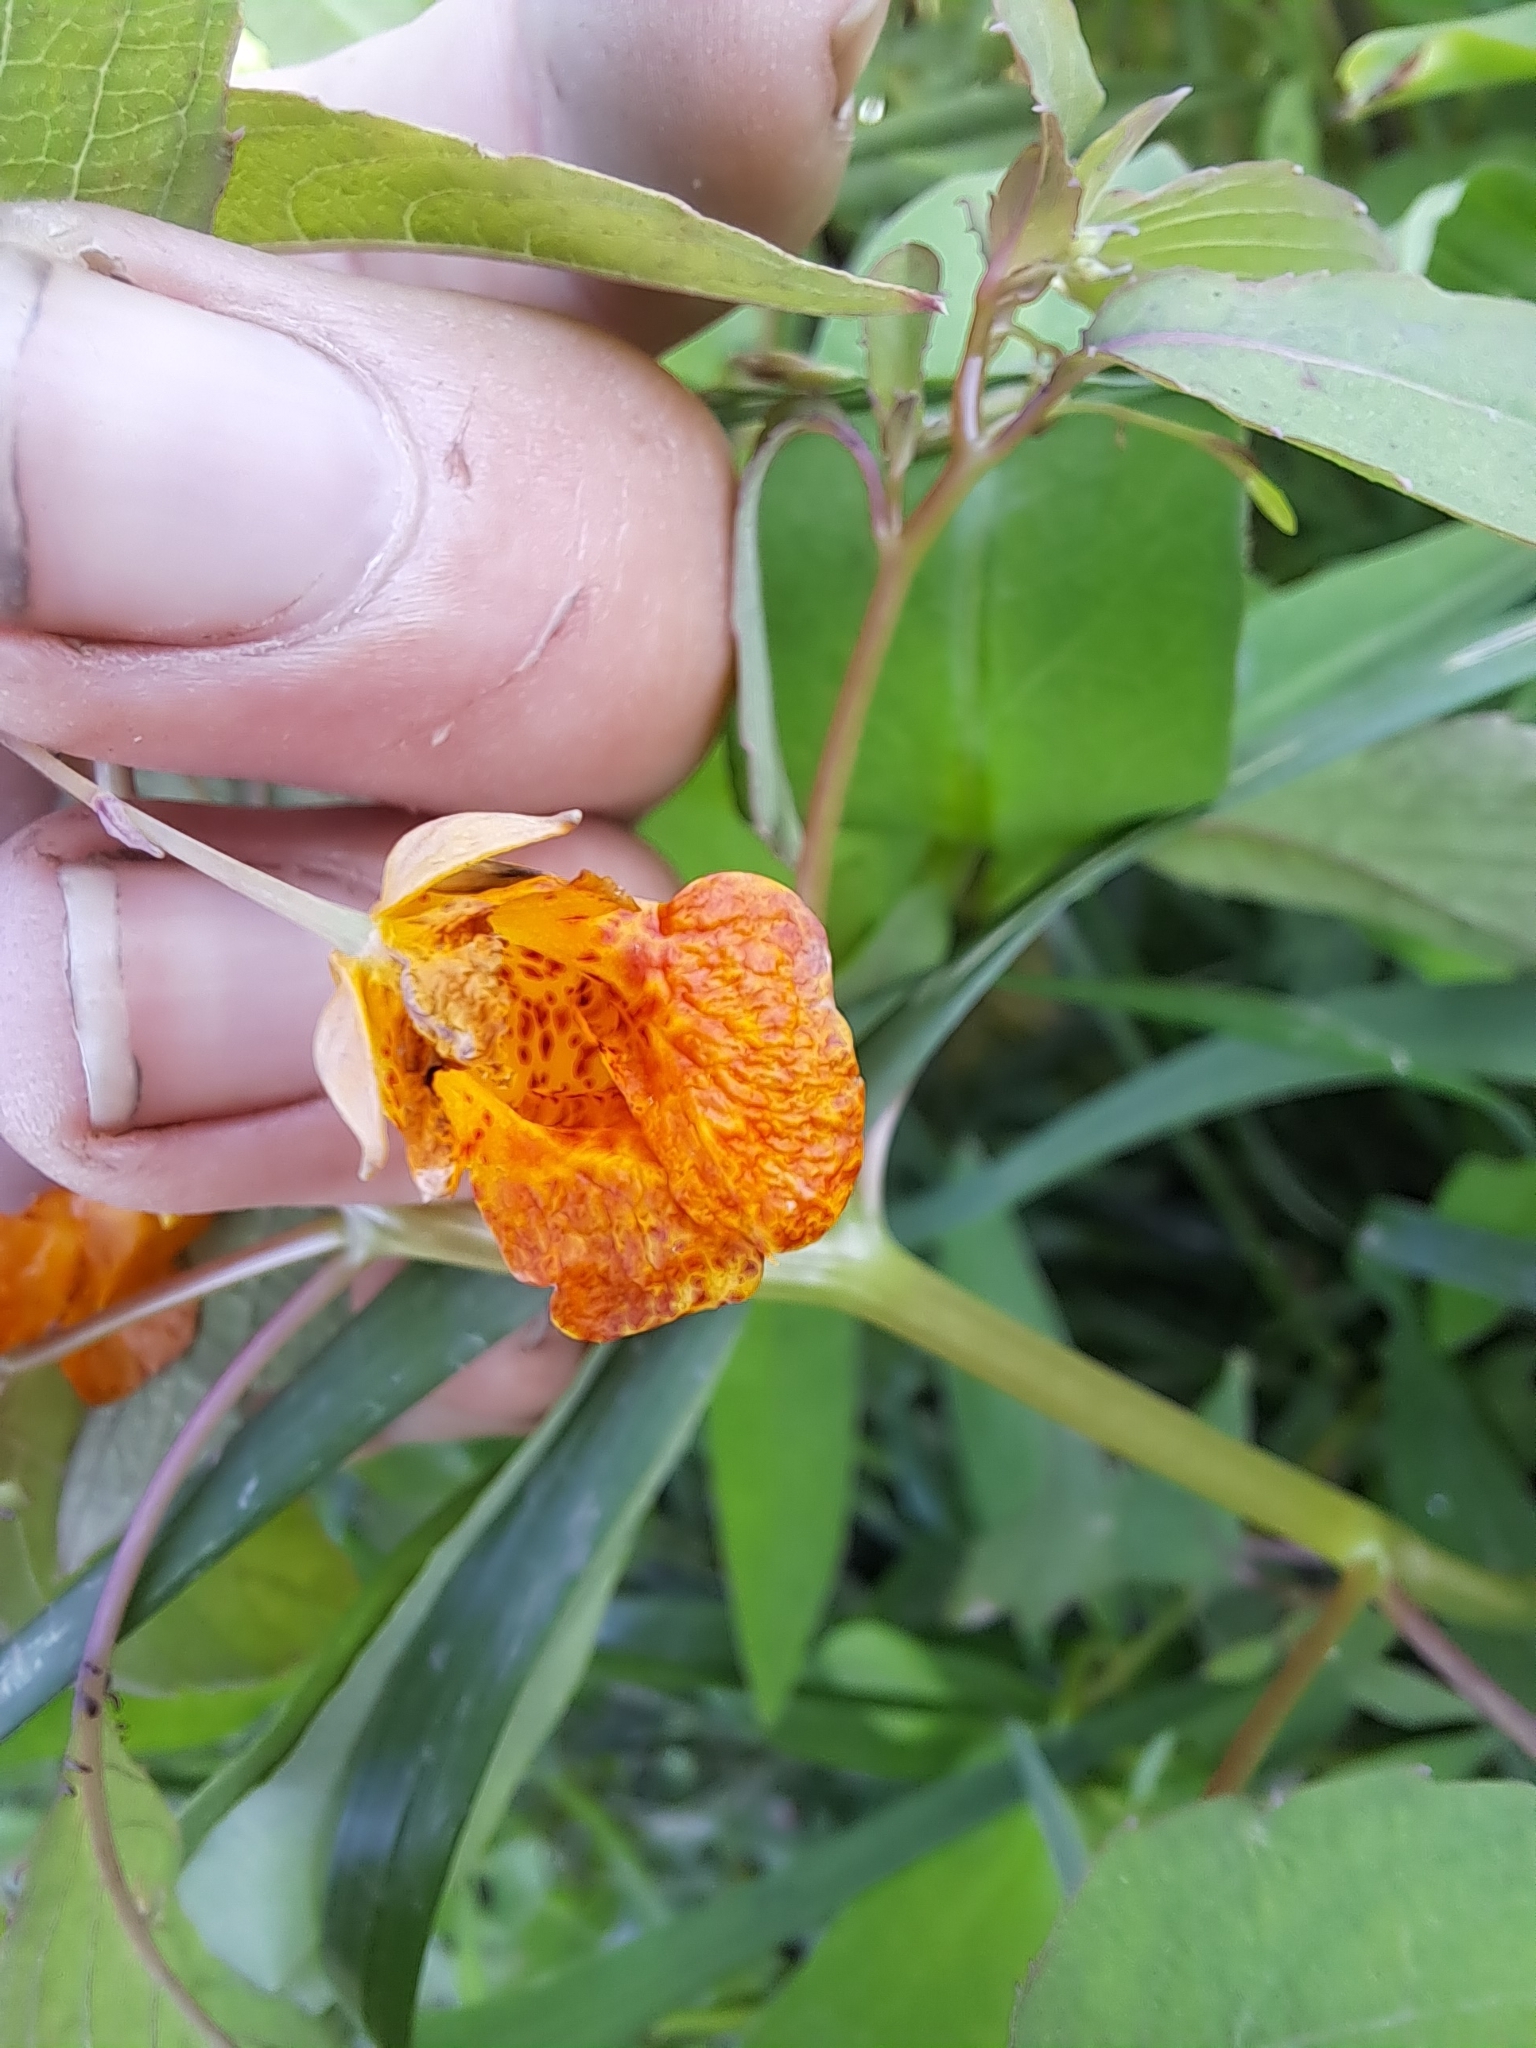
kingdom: Plantae
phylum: Tracheophyta
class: Magnoliopsida
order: Ericales
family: Balsaminaceae
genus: Impatiens
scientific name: Impatiens capensis
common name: Orange balsam
